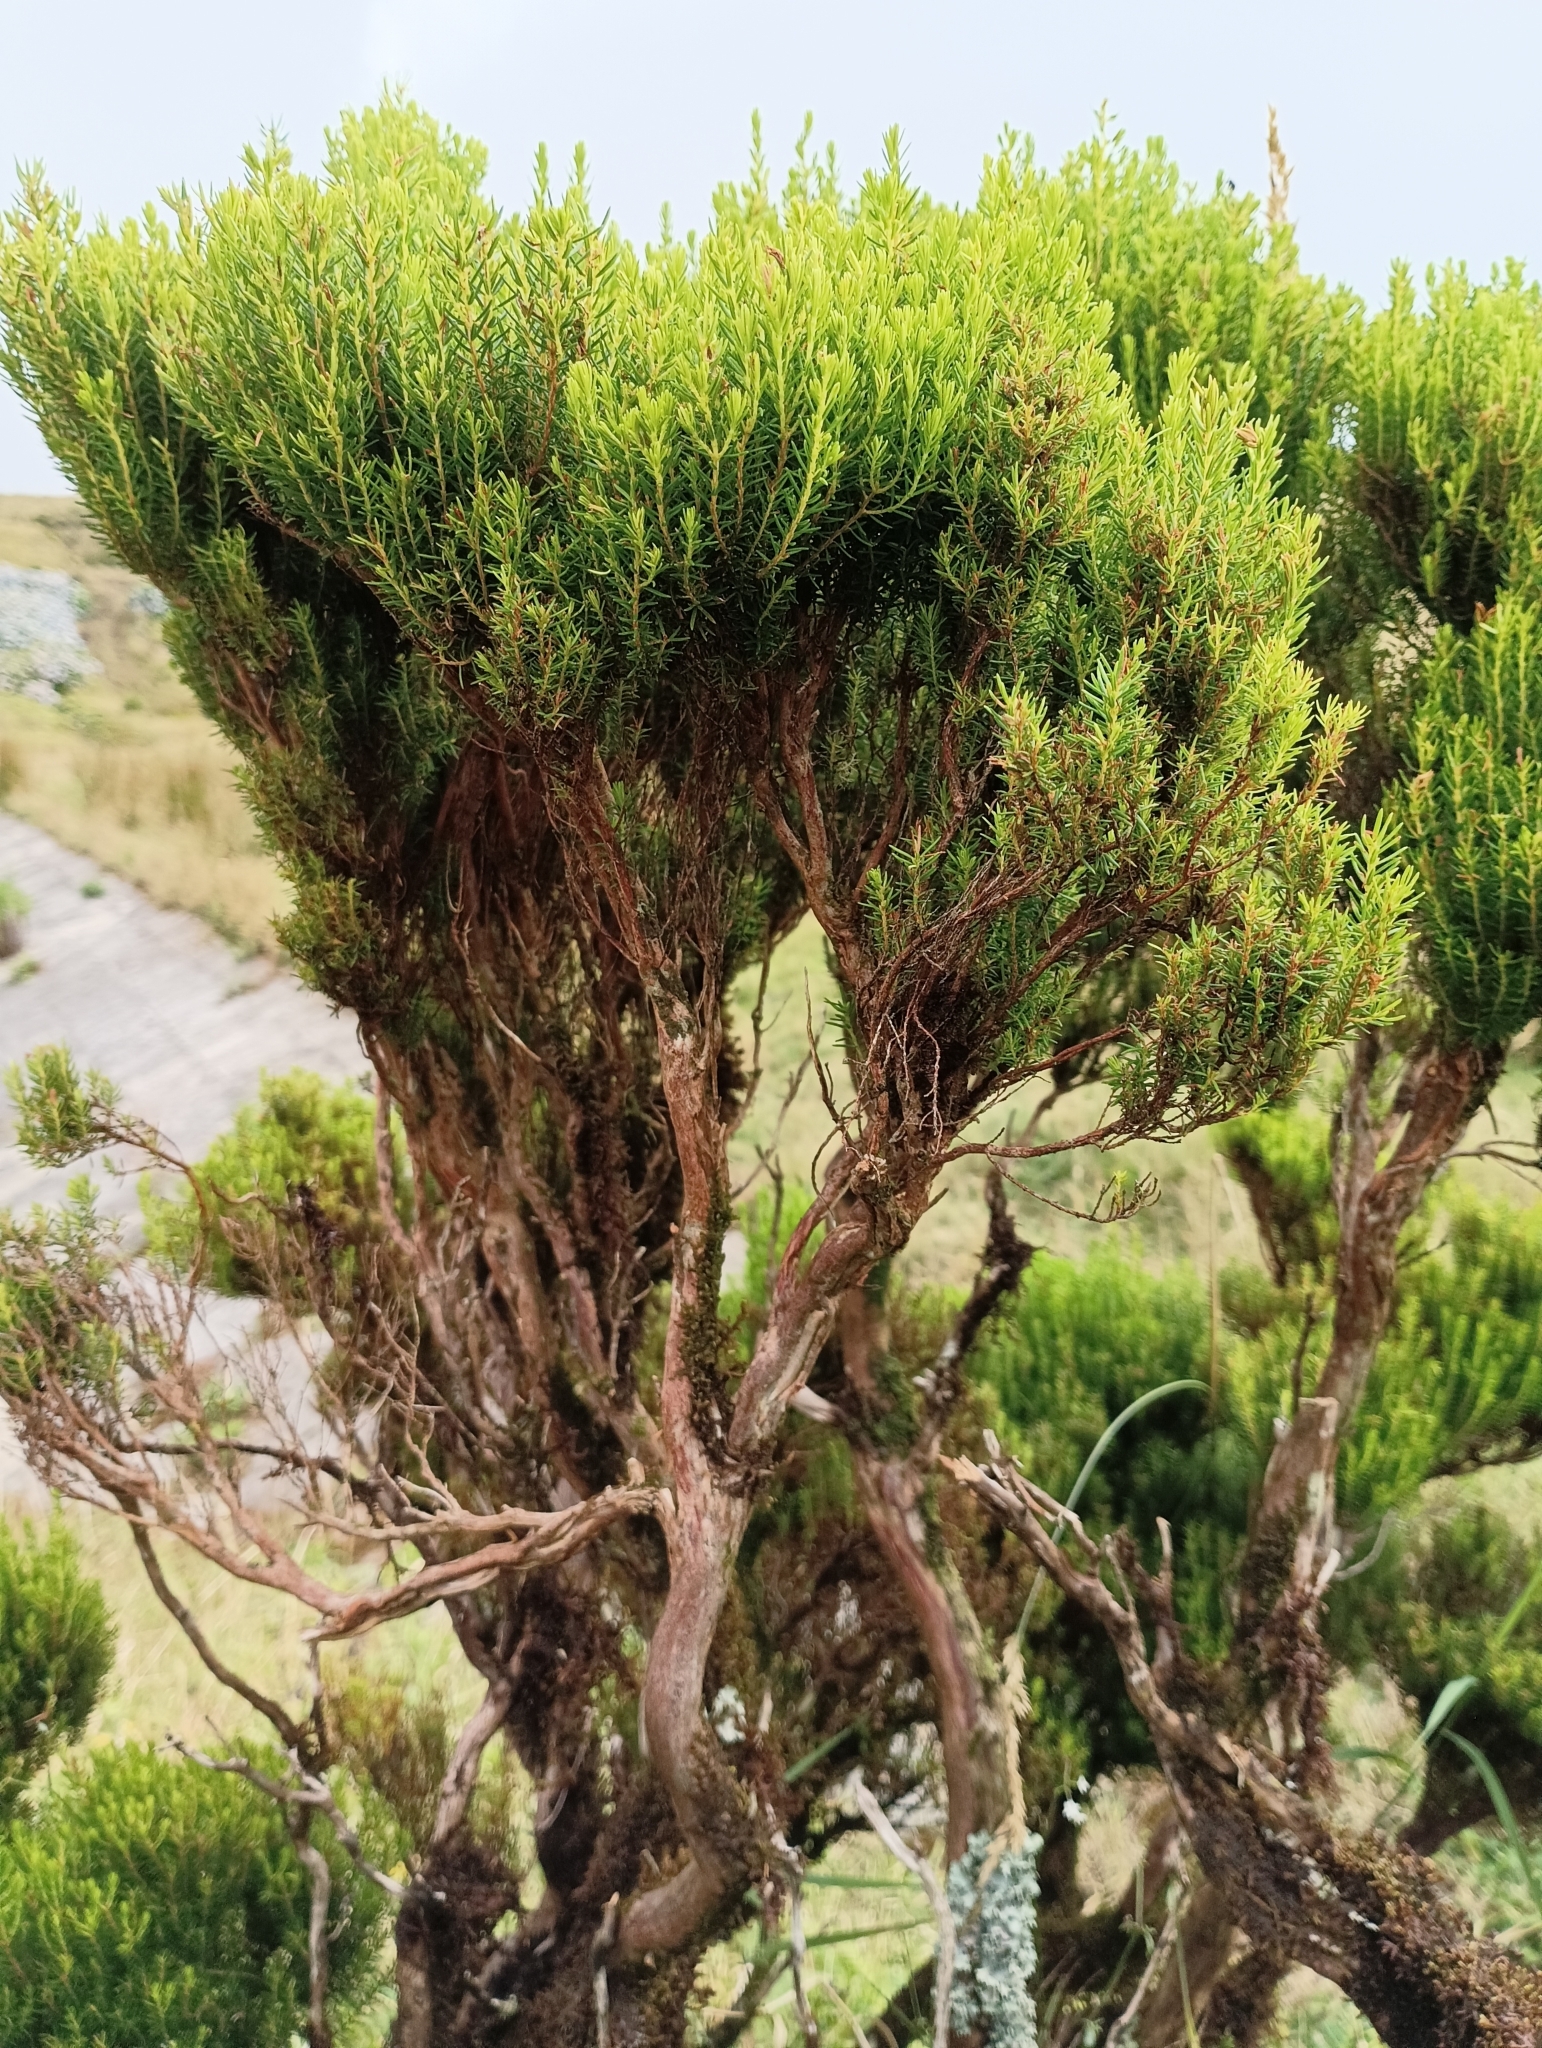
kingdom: Plantae
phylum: Tracheophyta
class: Magnoliopsida
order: Ericales
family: Ericaceae
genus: Erica
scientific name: Erica azorica
